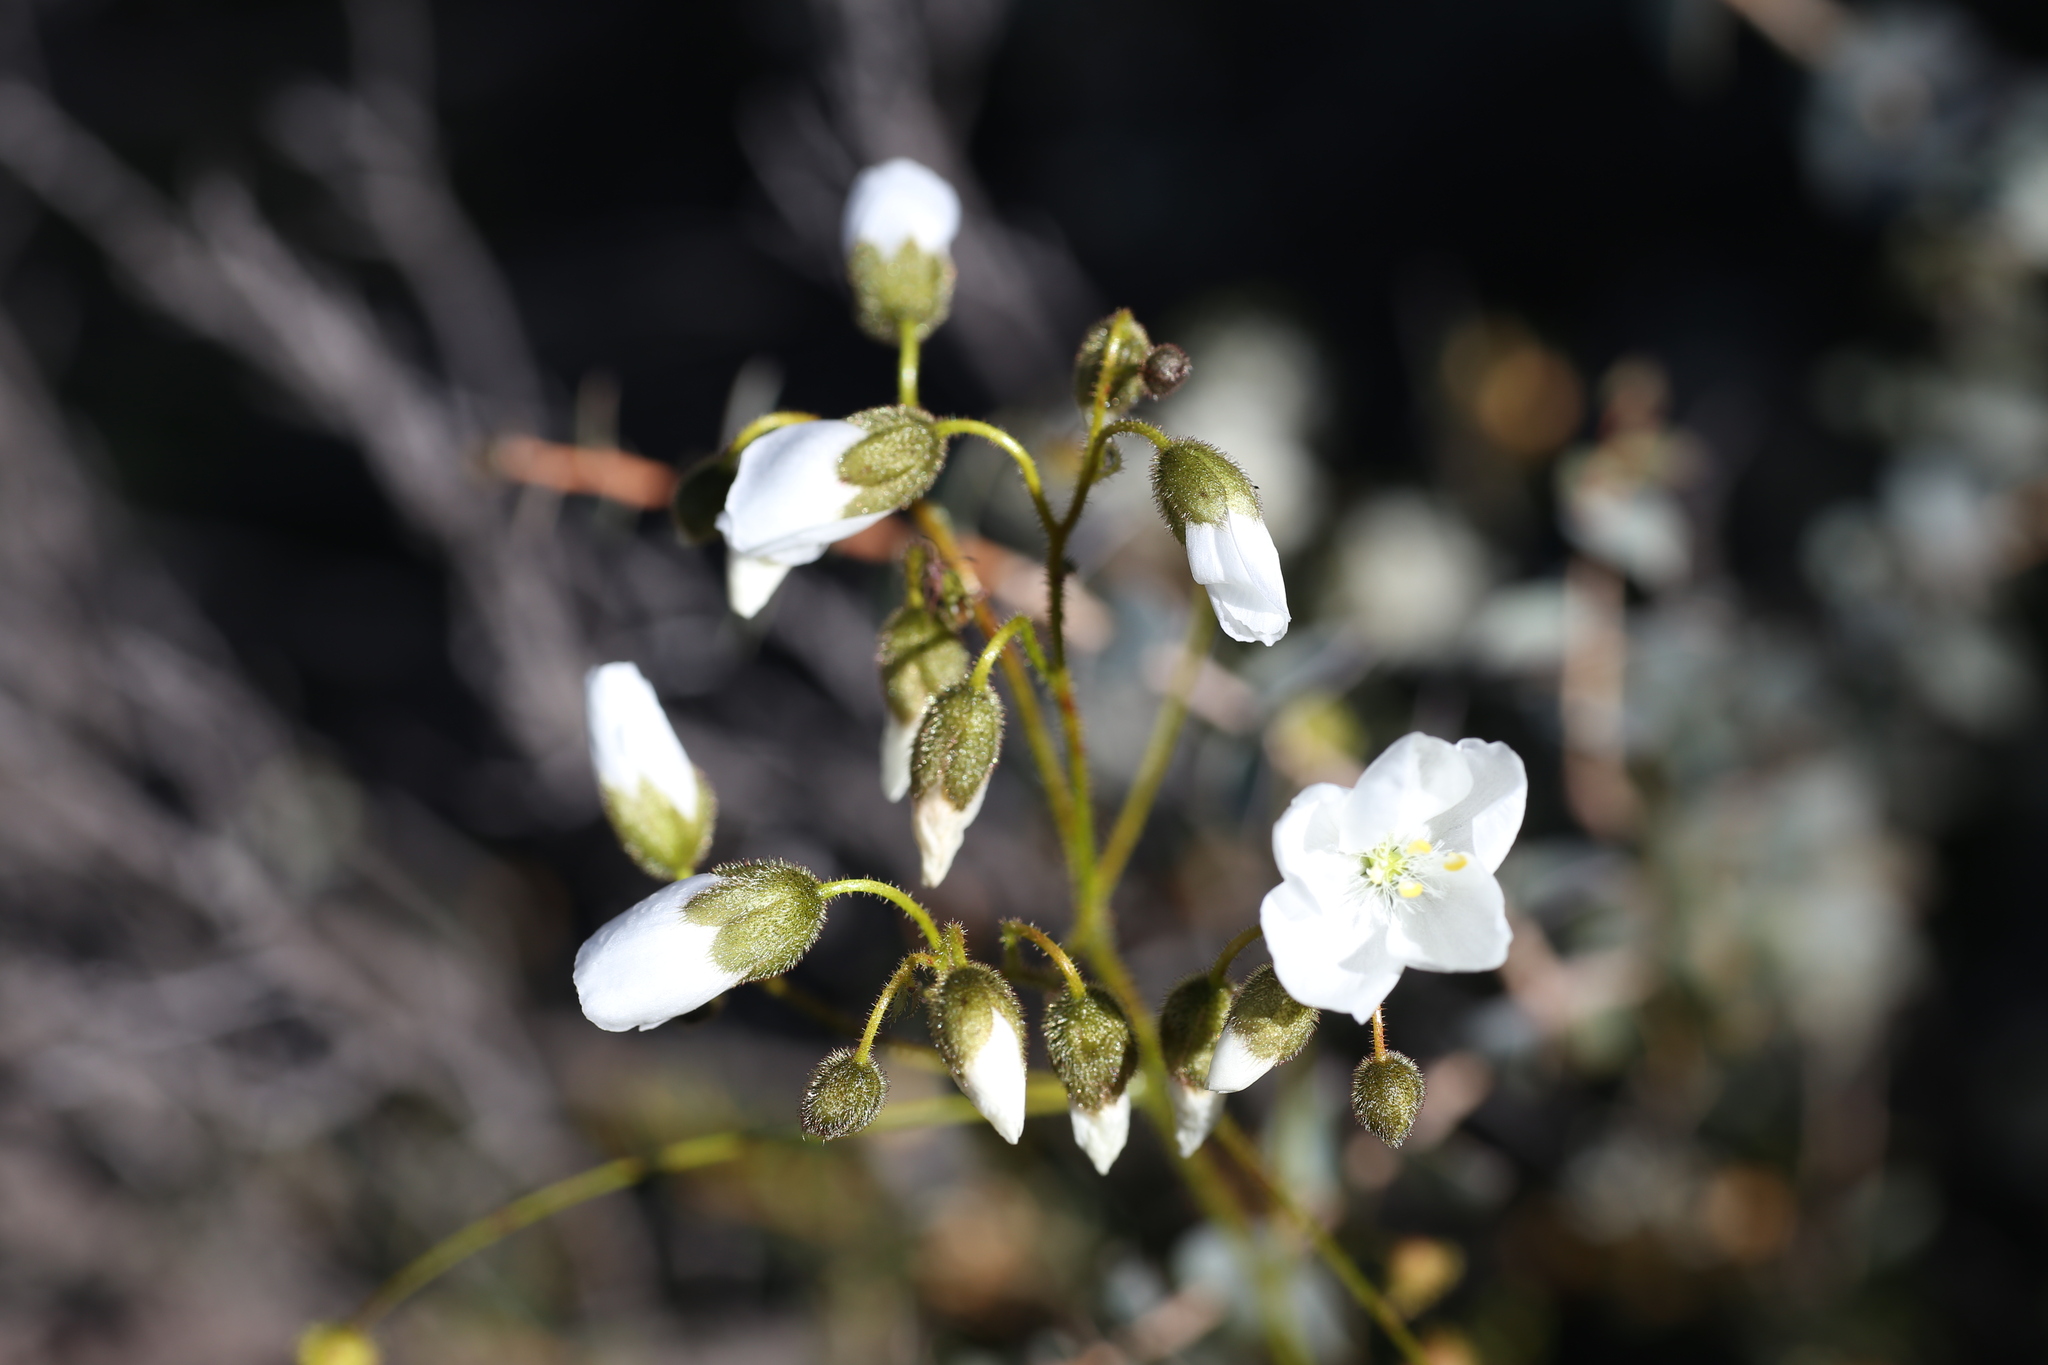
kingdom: Plantae
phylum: Tracheophyta
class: Magnoliopsida
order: Caryophyllales
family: Droseraceae
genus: Drosera
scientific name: Drosera macrantha
